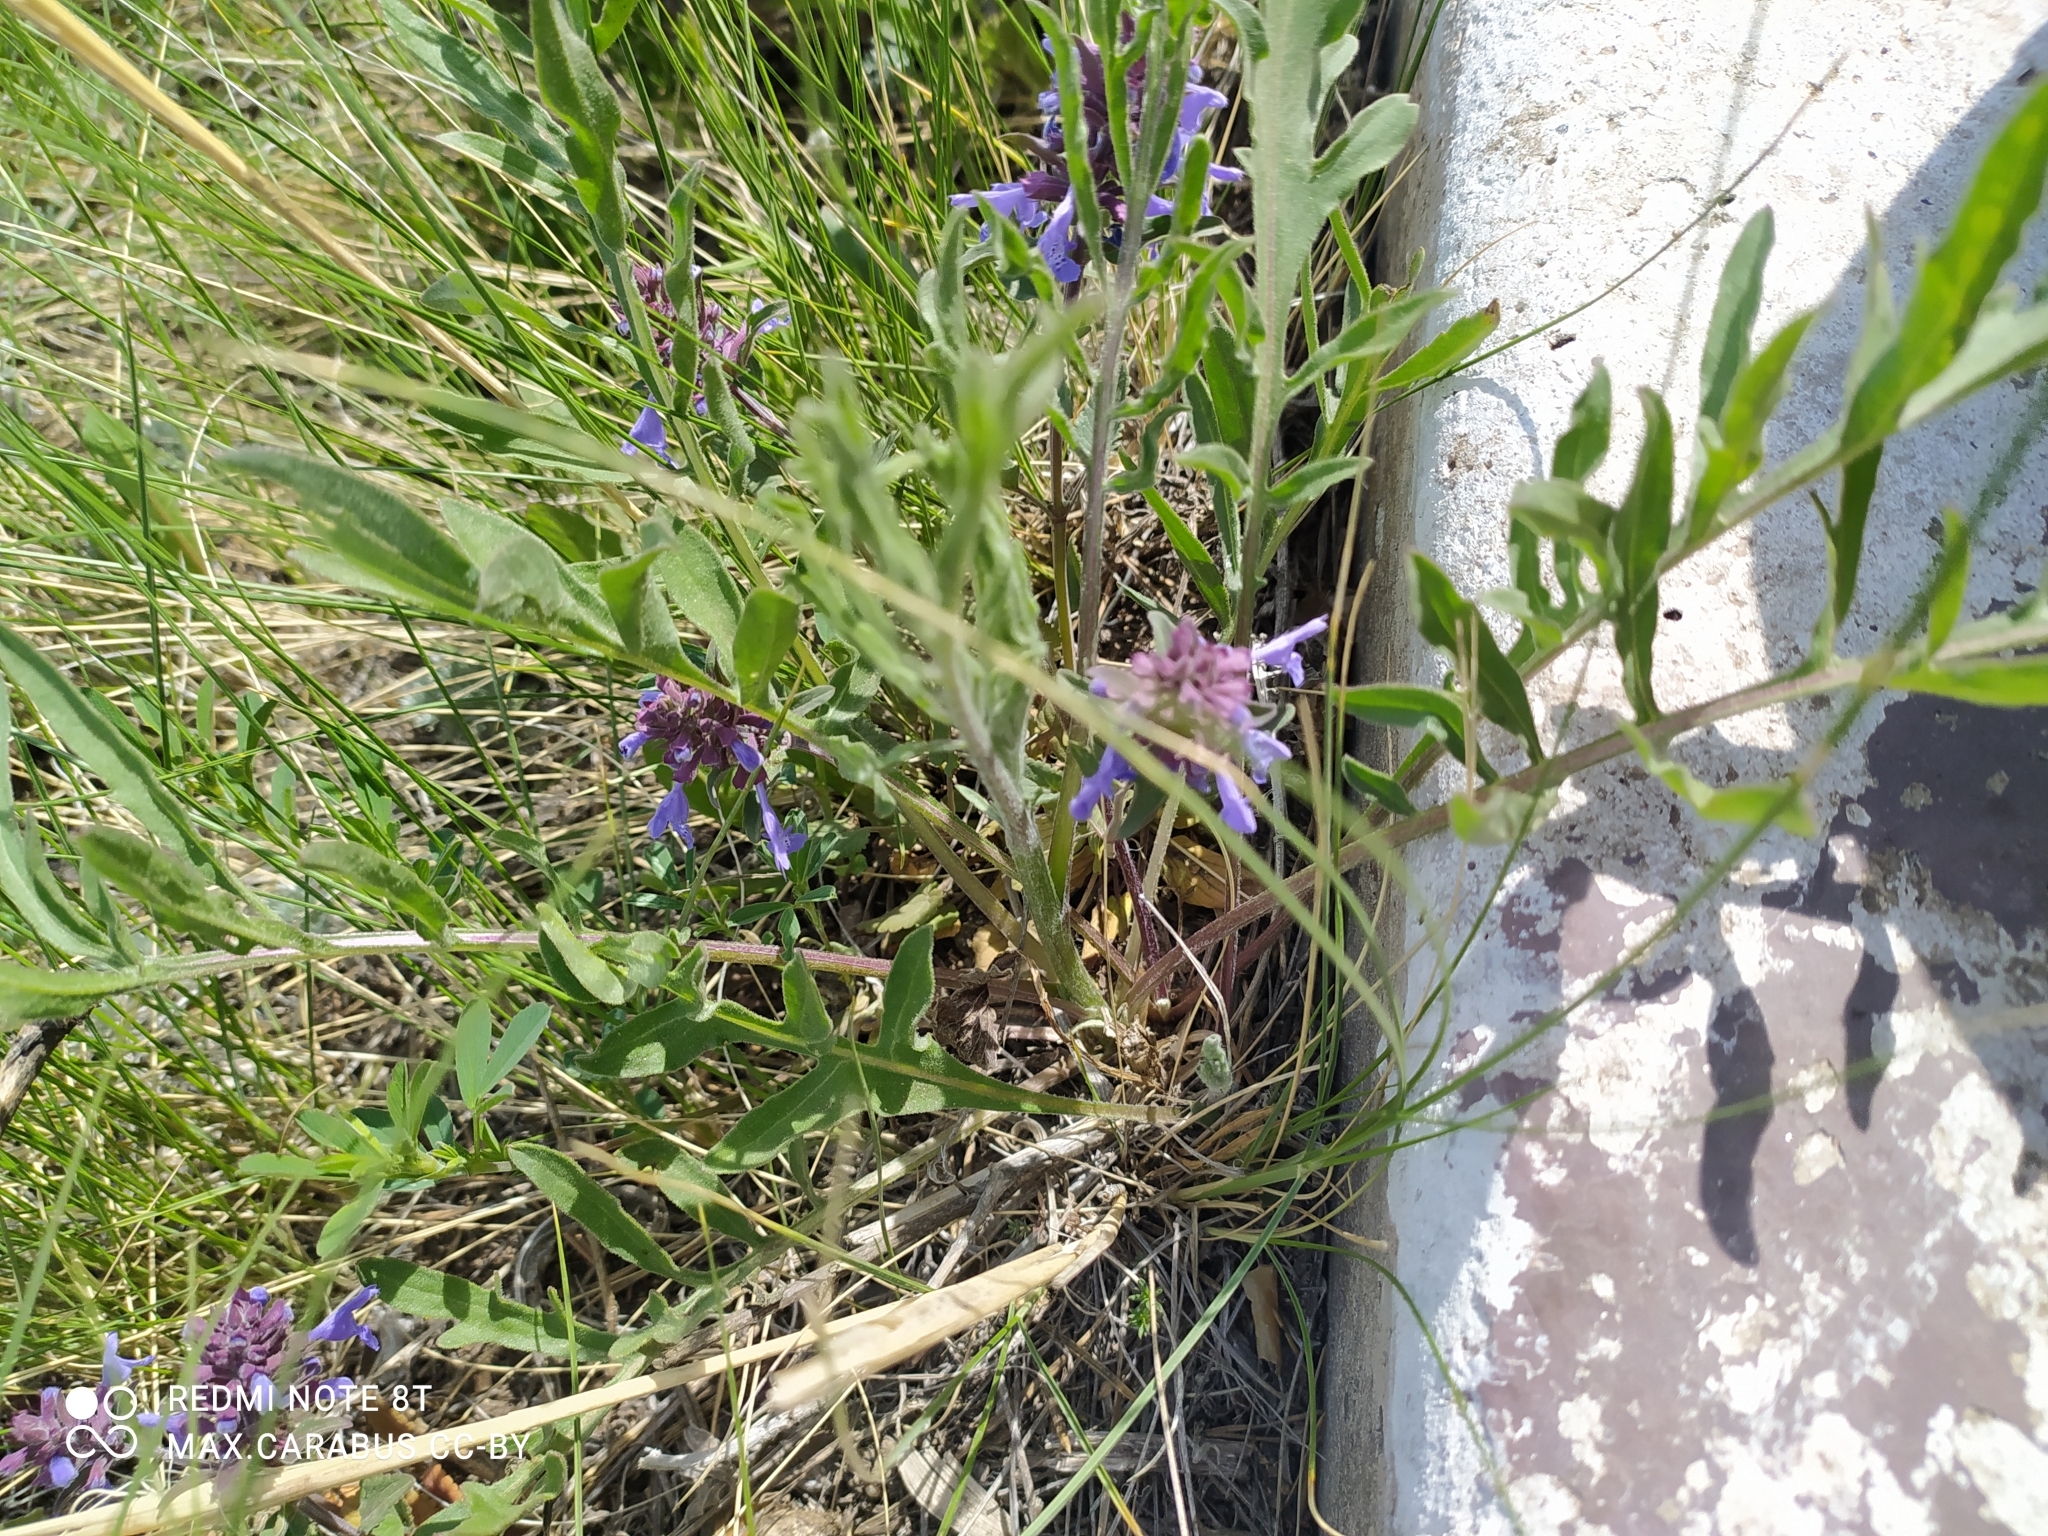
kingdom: Plantae
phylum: Tracheophyta
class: Magnoliopsida
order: Lamiales
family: Lamiaceae
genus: Dracocephalum
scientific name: Dracocephalum nutans
